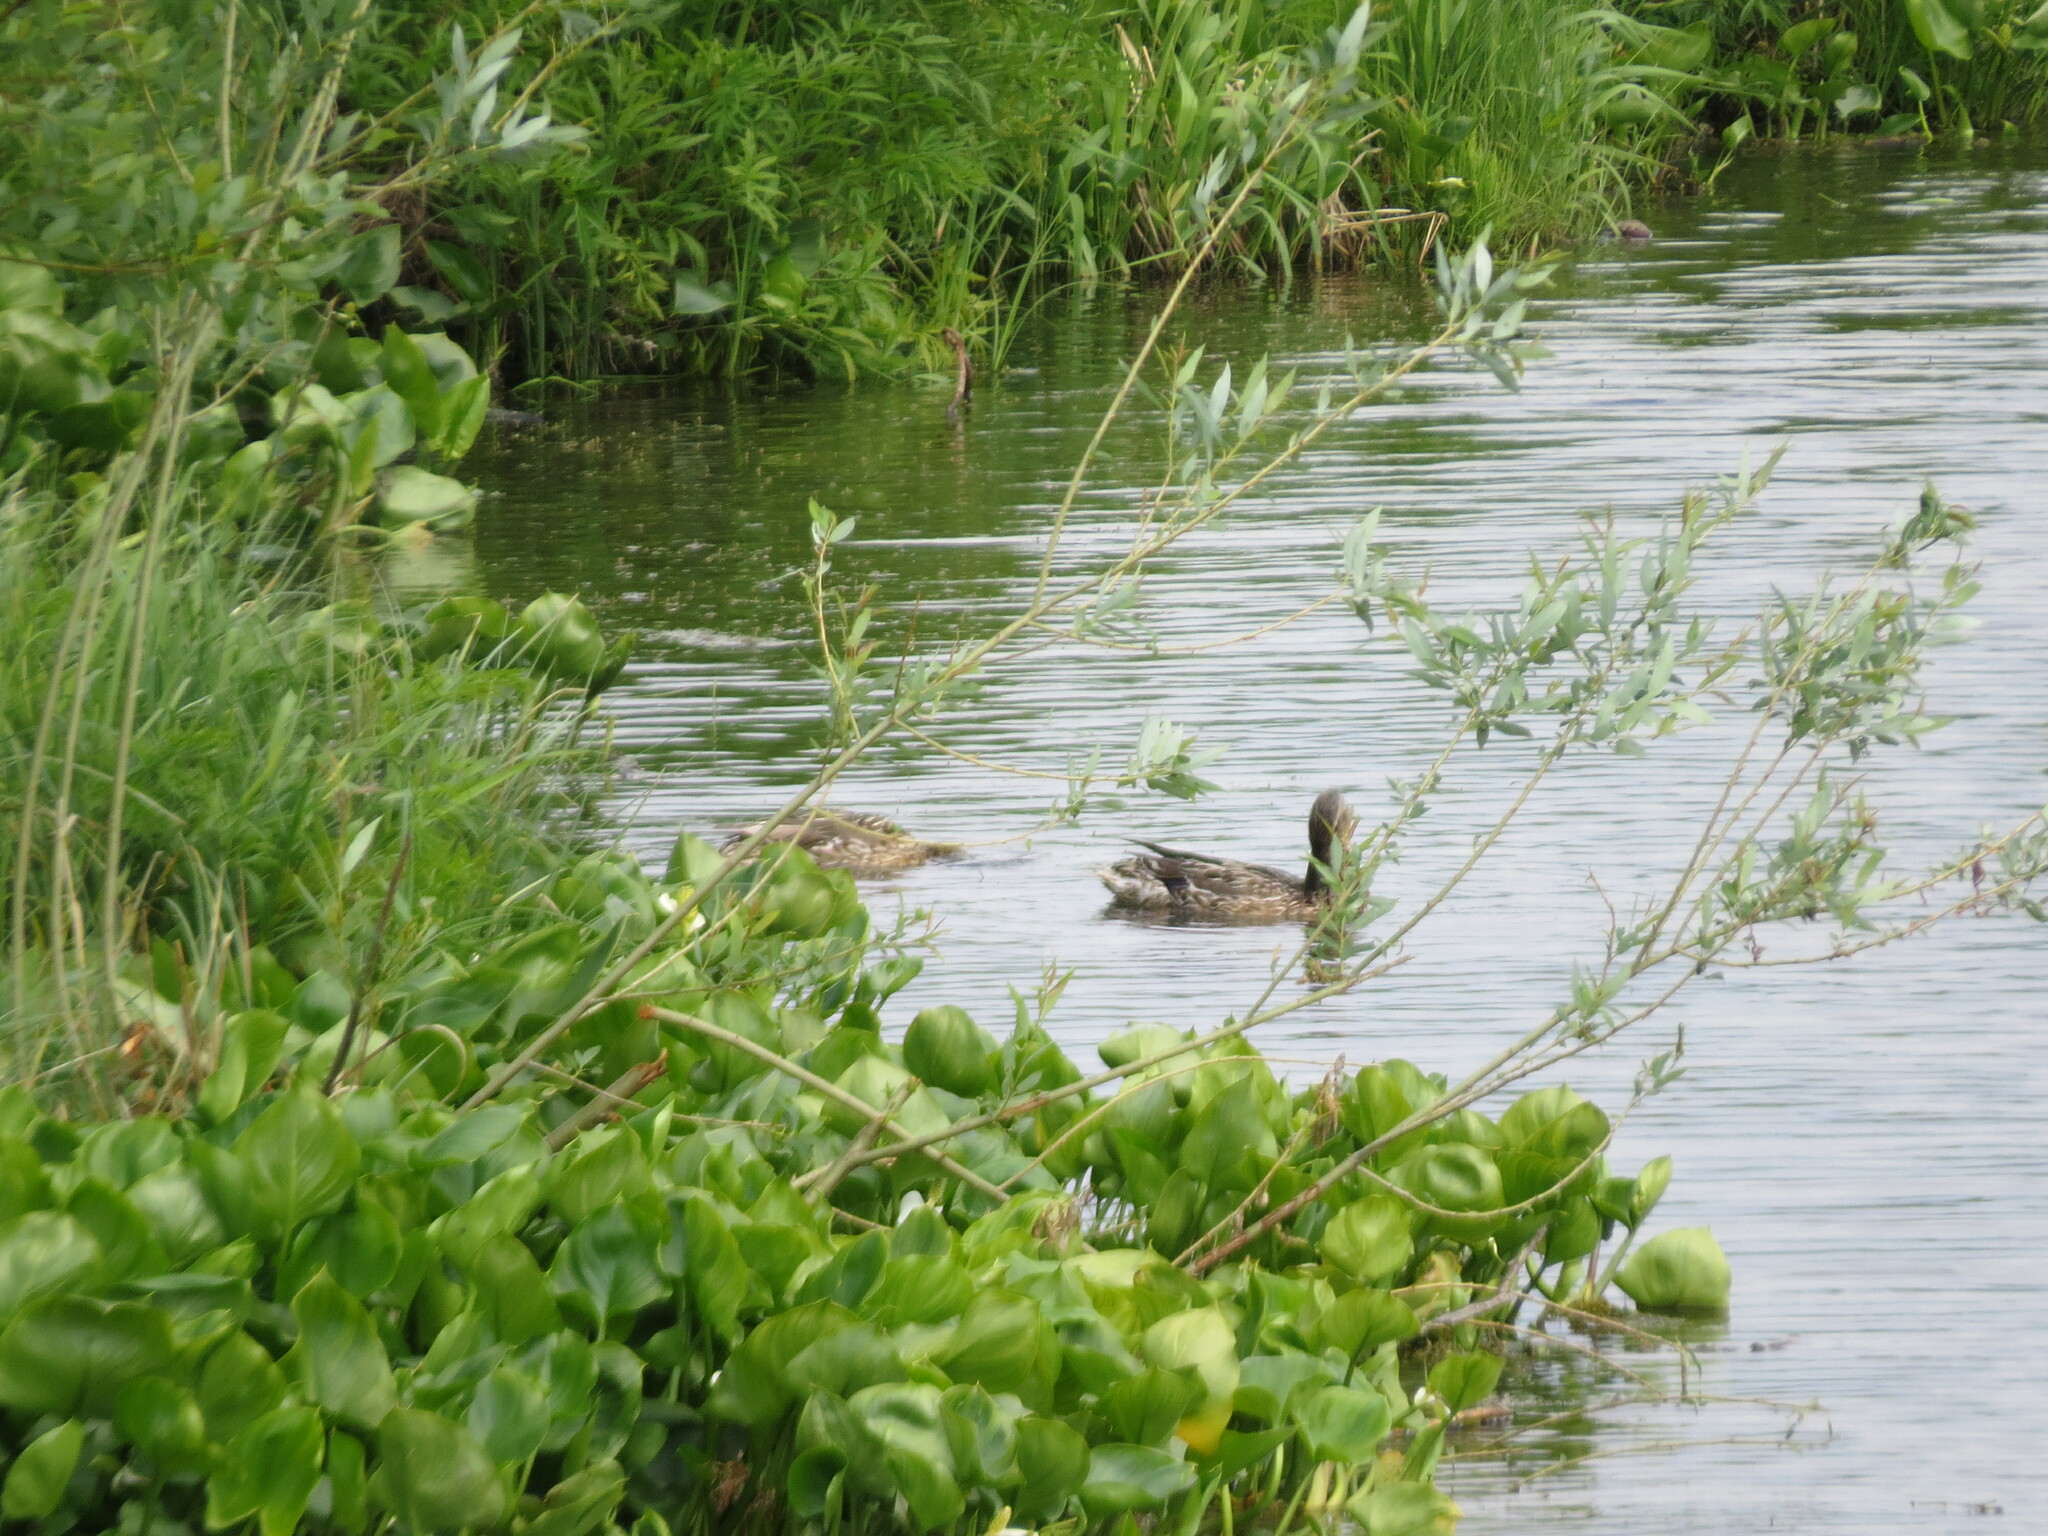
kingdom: Animalia
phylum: Chordata
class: Aves
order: Anseriformes
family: Anatidae
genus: Anas
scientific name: Anas platyrhynchos
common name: Mallard
